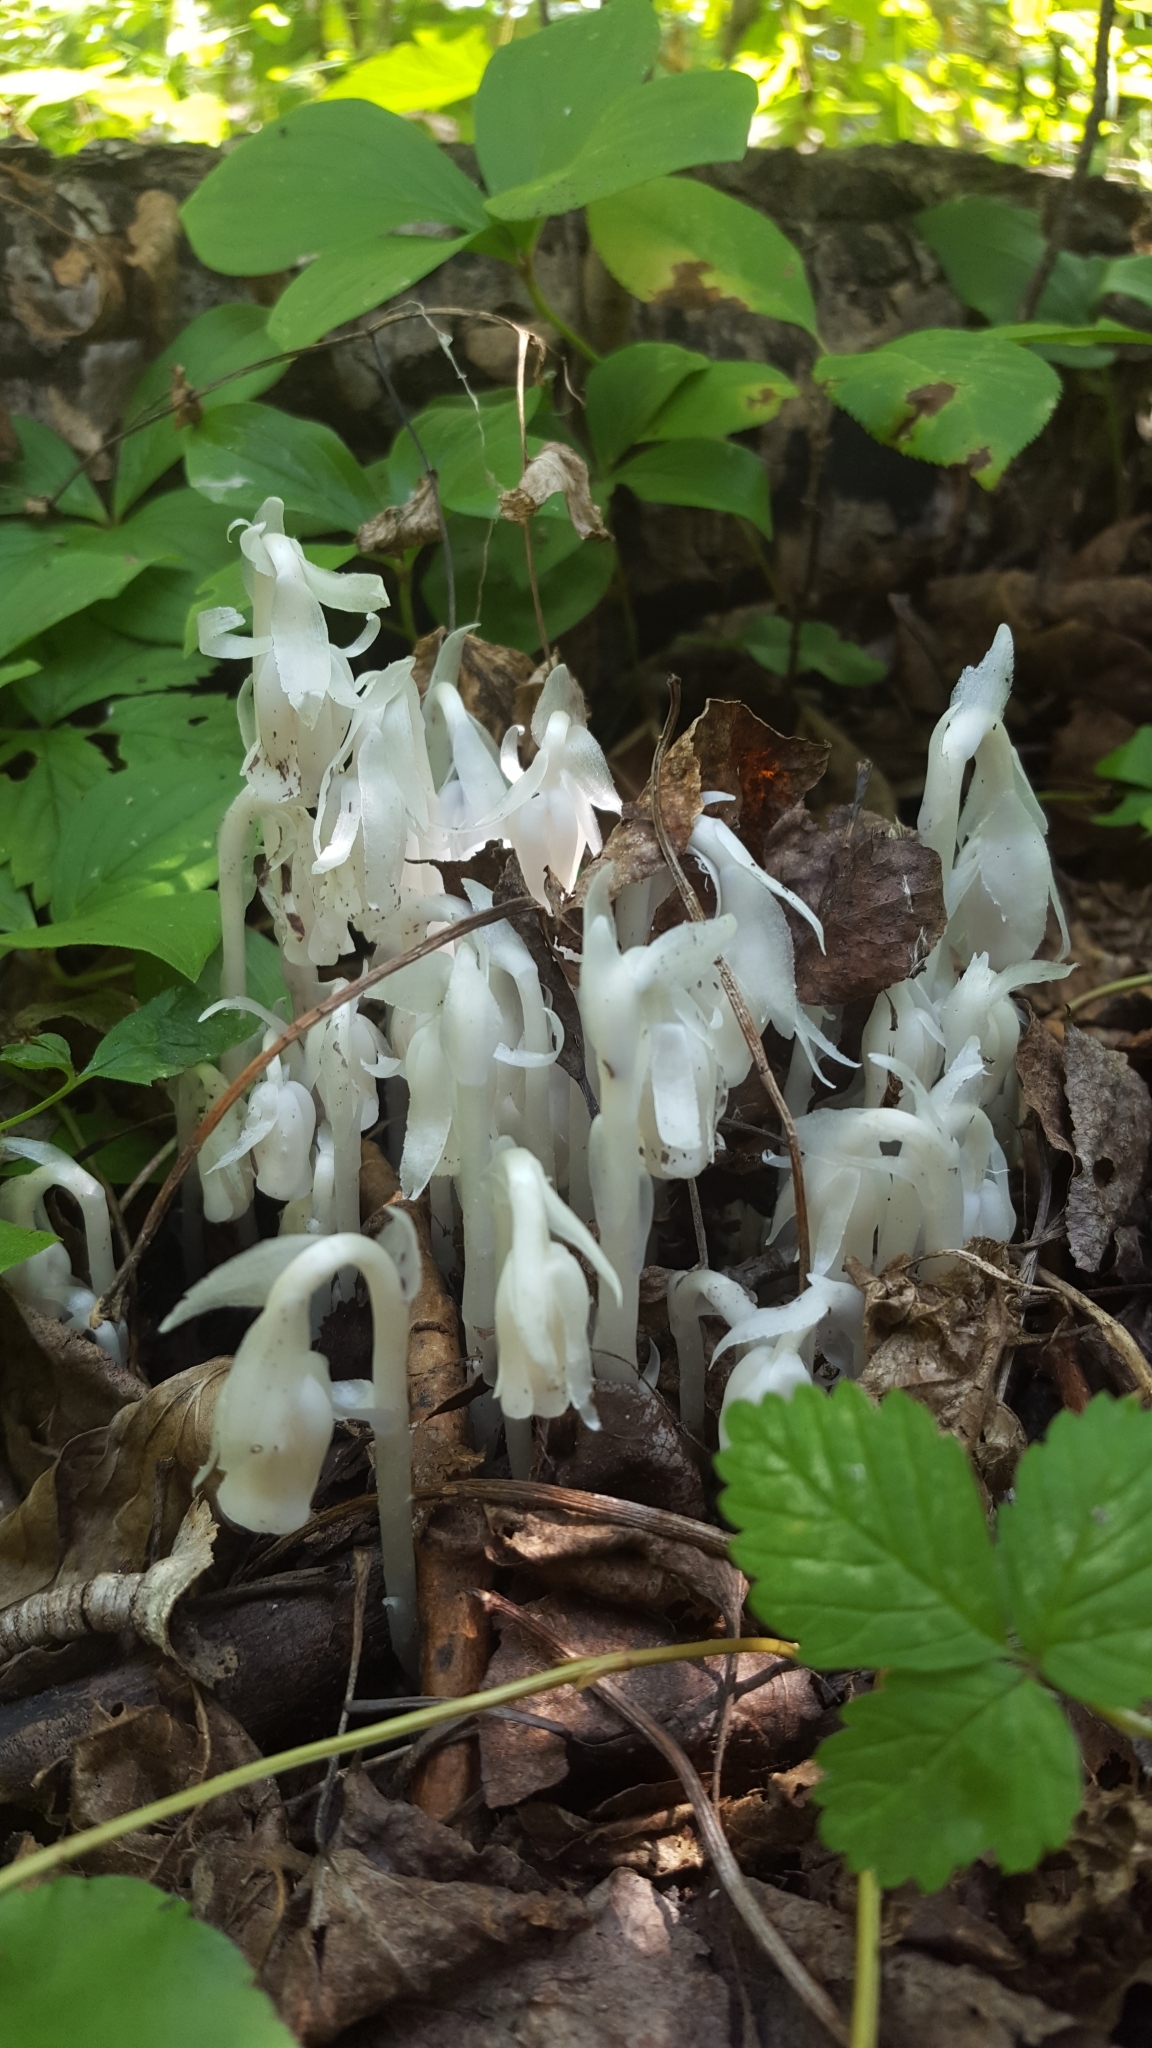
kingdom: Plantae
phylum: Tracheophyta
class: Magnoliopsida
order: Ericales
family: Ericaceae
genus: Monotropa
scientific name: Monotropa uniflora
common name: Convulsion root
